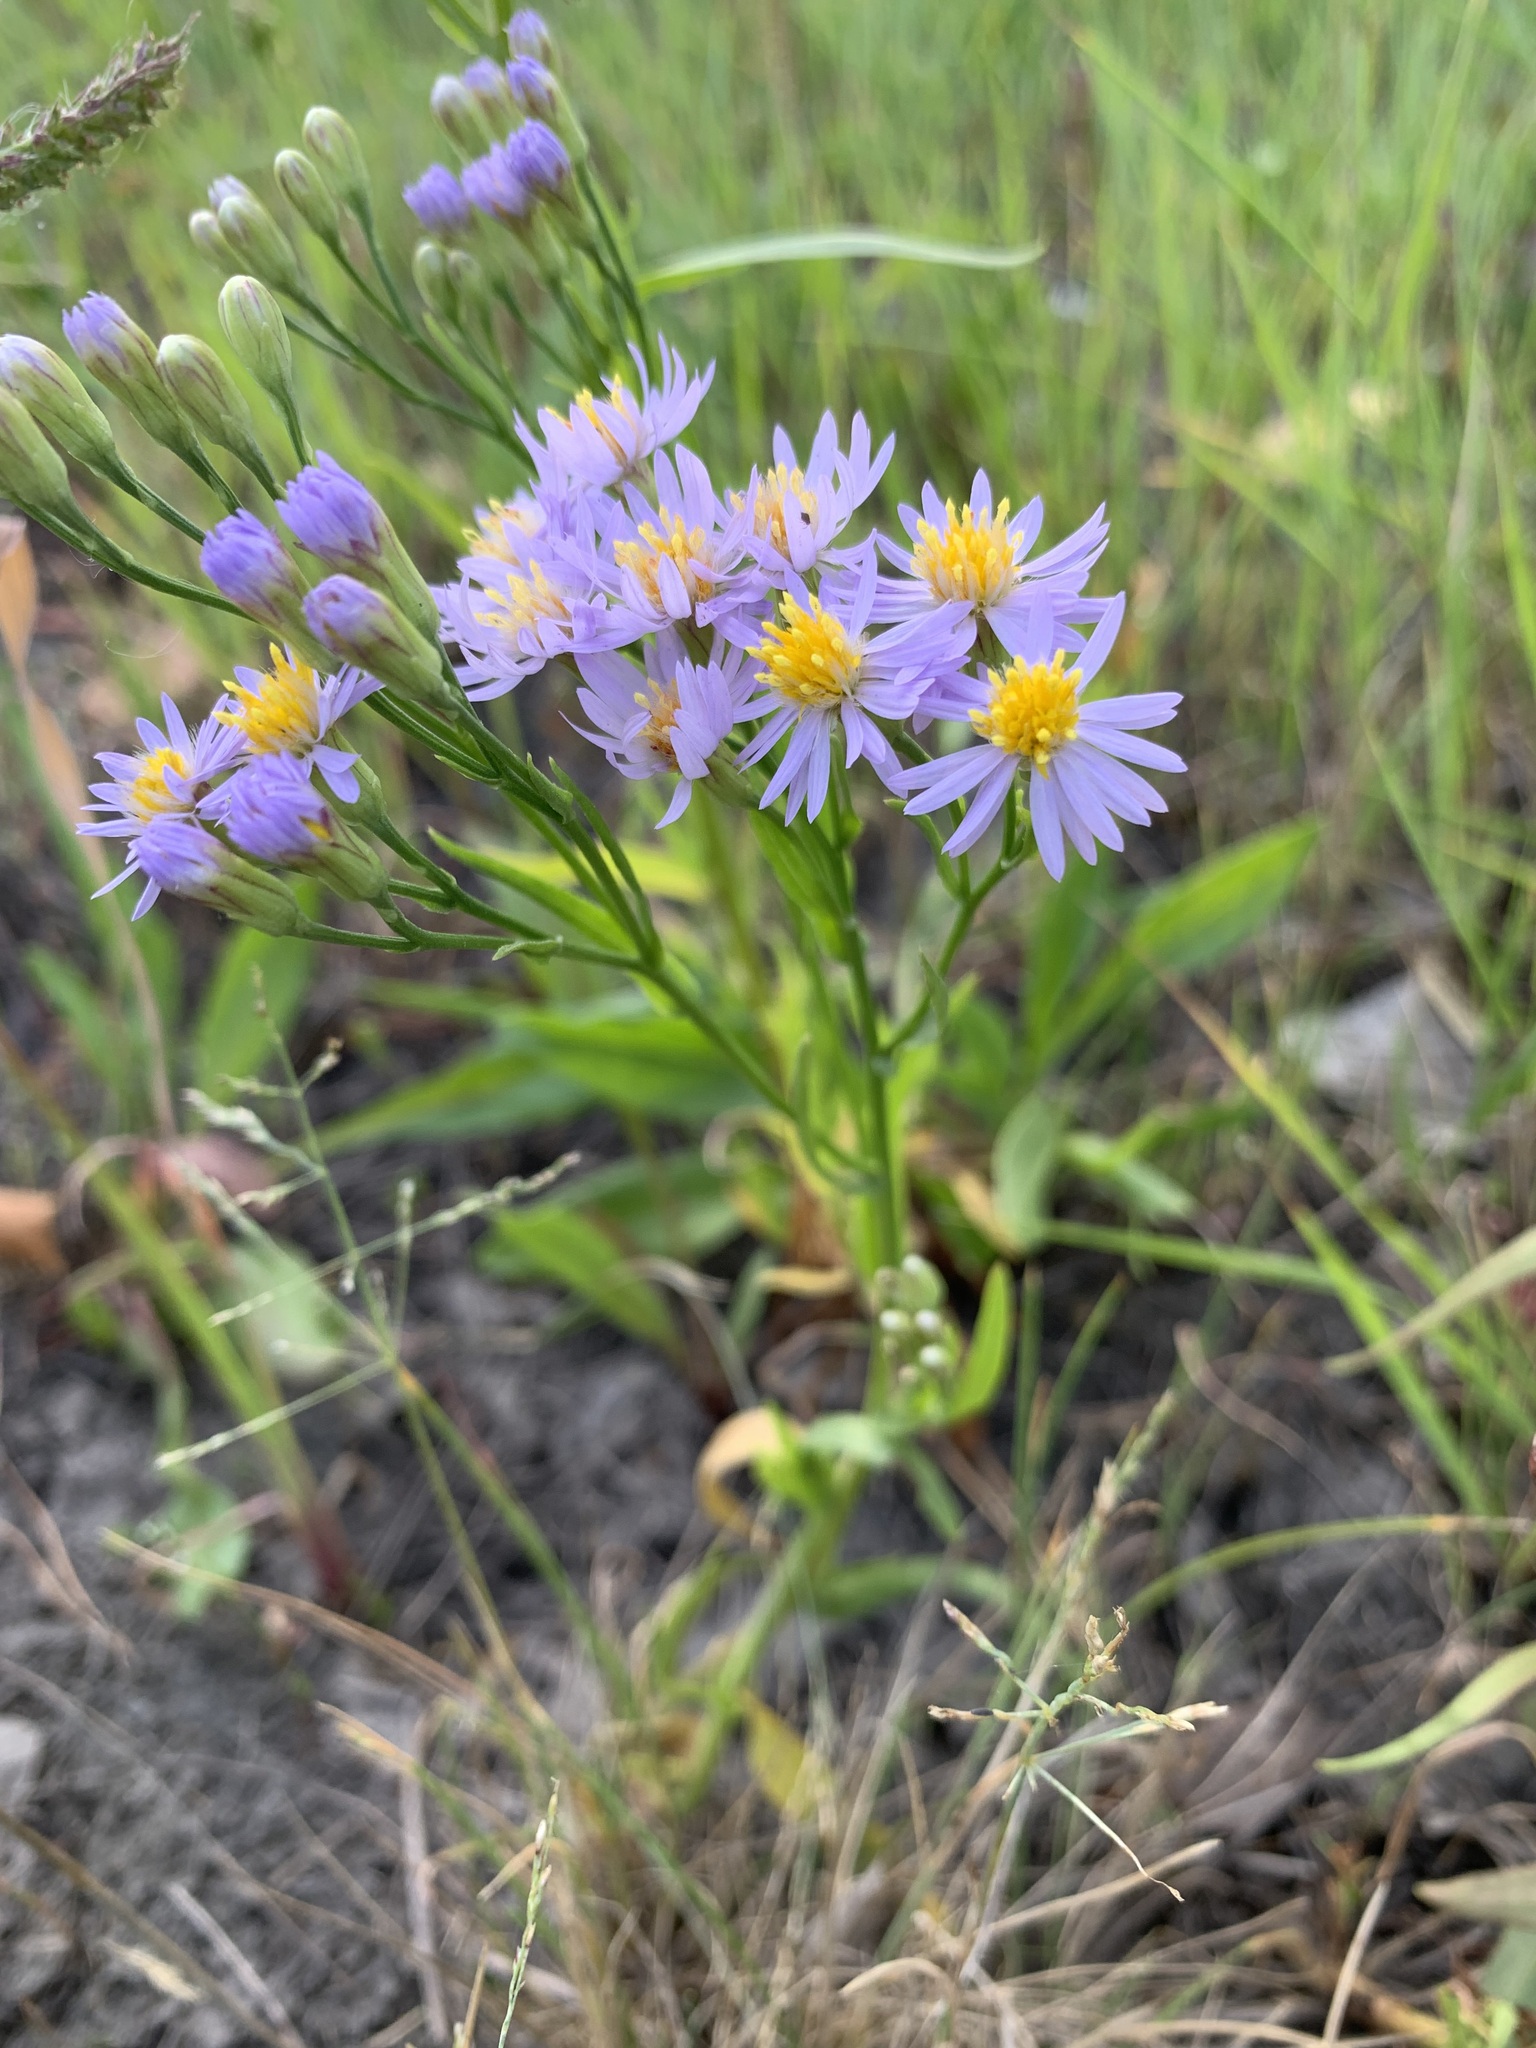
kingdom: Plantae
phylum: Tracheophyta
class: Magnoliopsida
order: Asterales
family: Asteraceae
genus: Tripolium
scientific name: Tripolium pannonicum
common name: Sea aster
